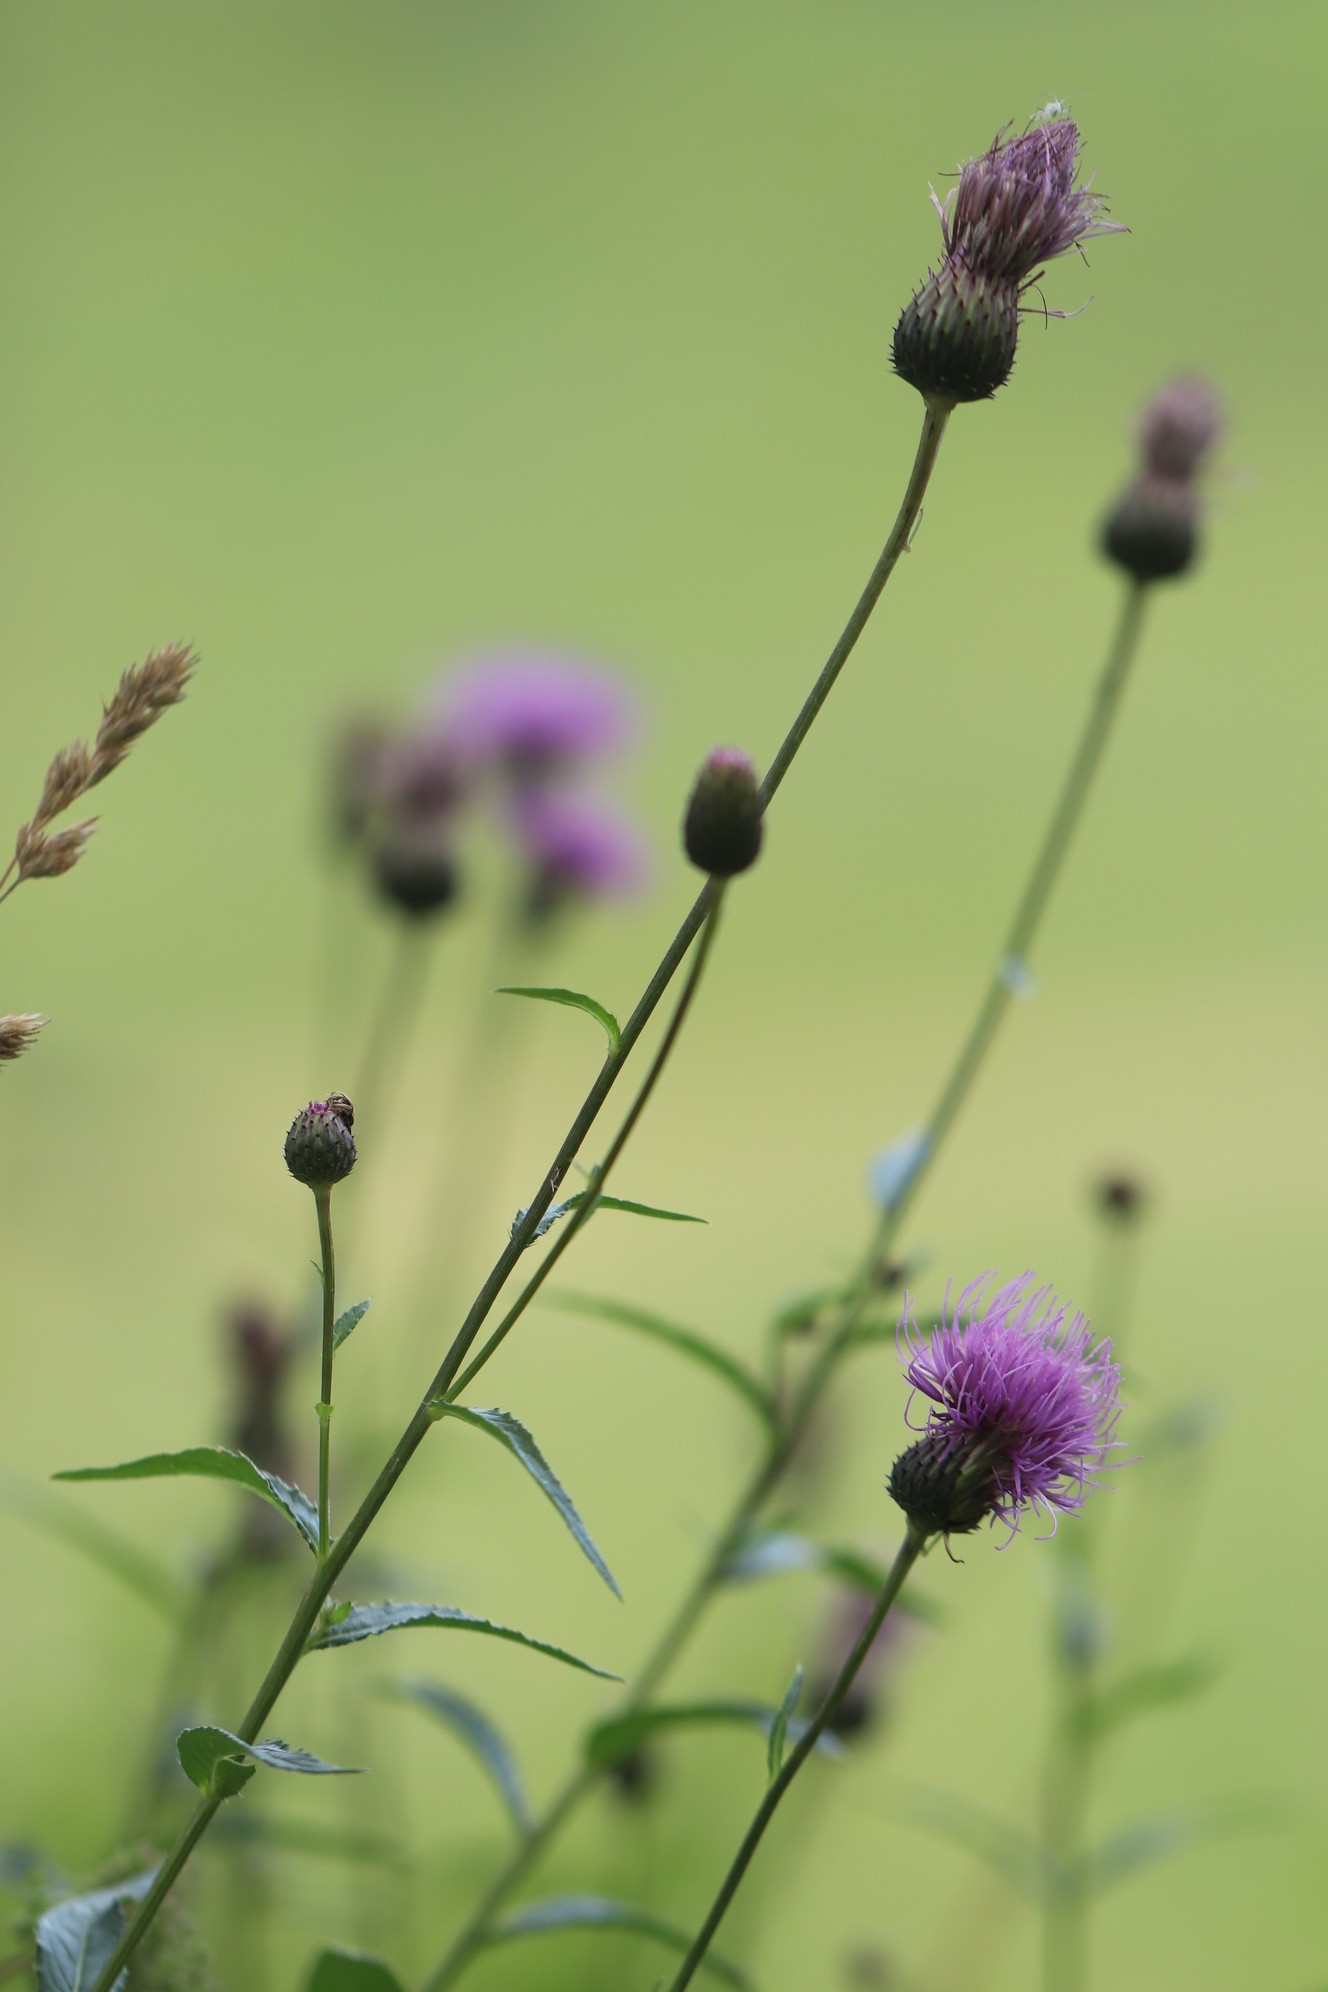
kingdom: Plantae
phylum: Tracheophyta
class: Magnoliopsida
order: Asterales
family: Asteraceae
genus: Cirsium
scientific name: Cirsium serratuloides
